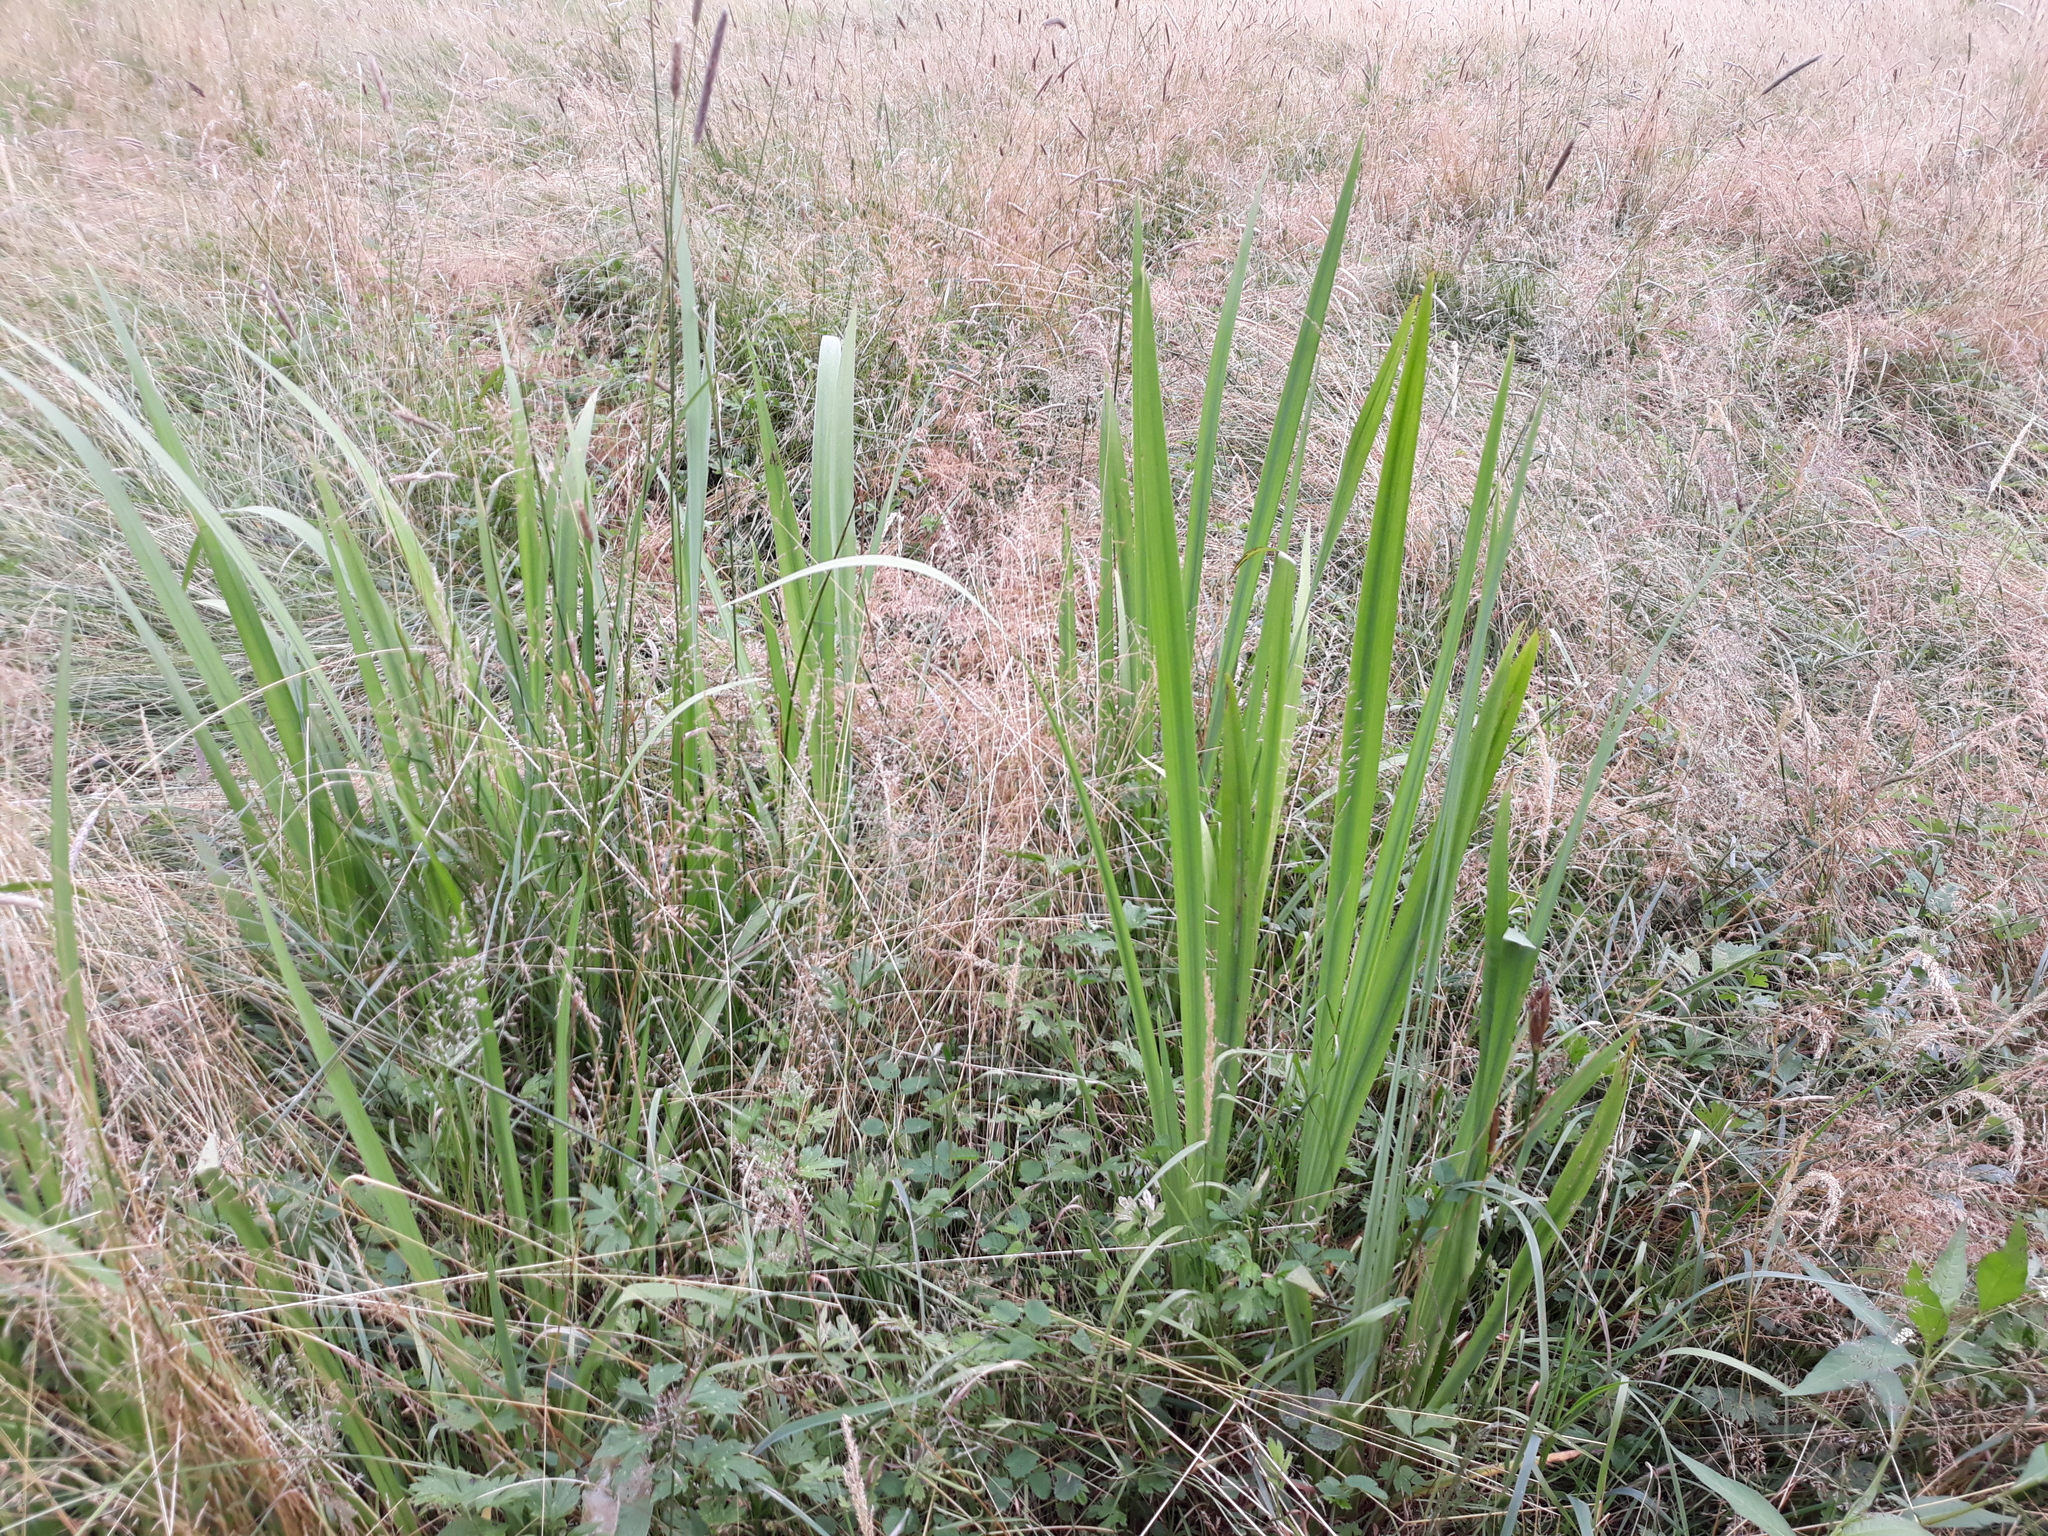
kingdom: Plantae
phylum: Tracheophyta
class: Liliopsida
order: Asparagales
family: Iridaceae
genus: Iris
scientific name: Iris pseudacorus
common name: Yellow flag
